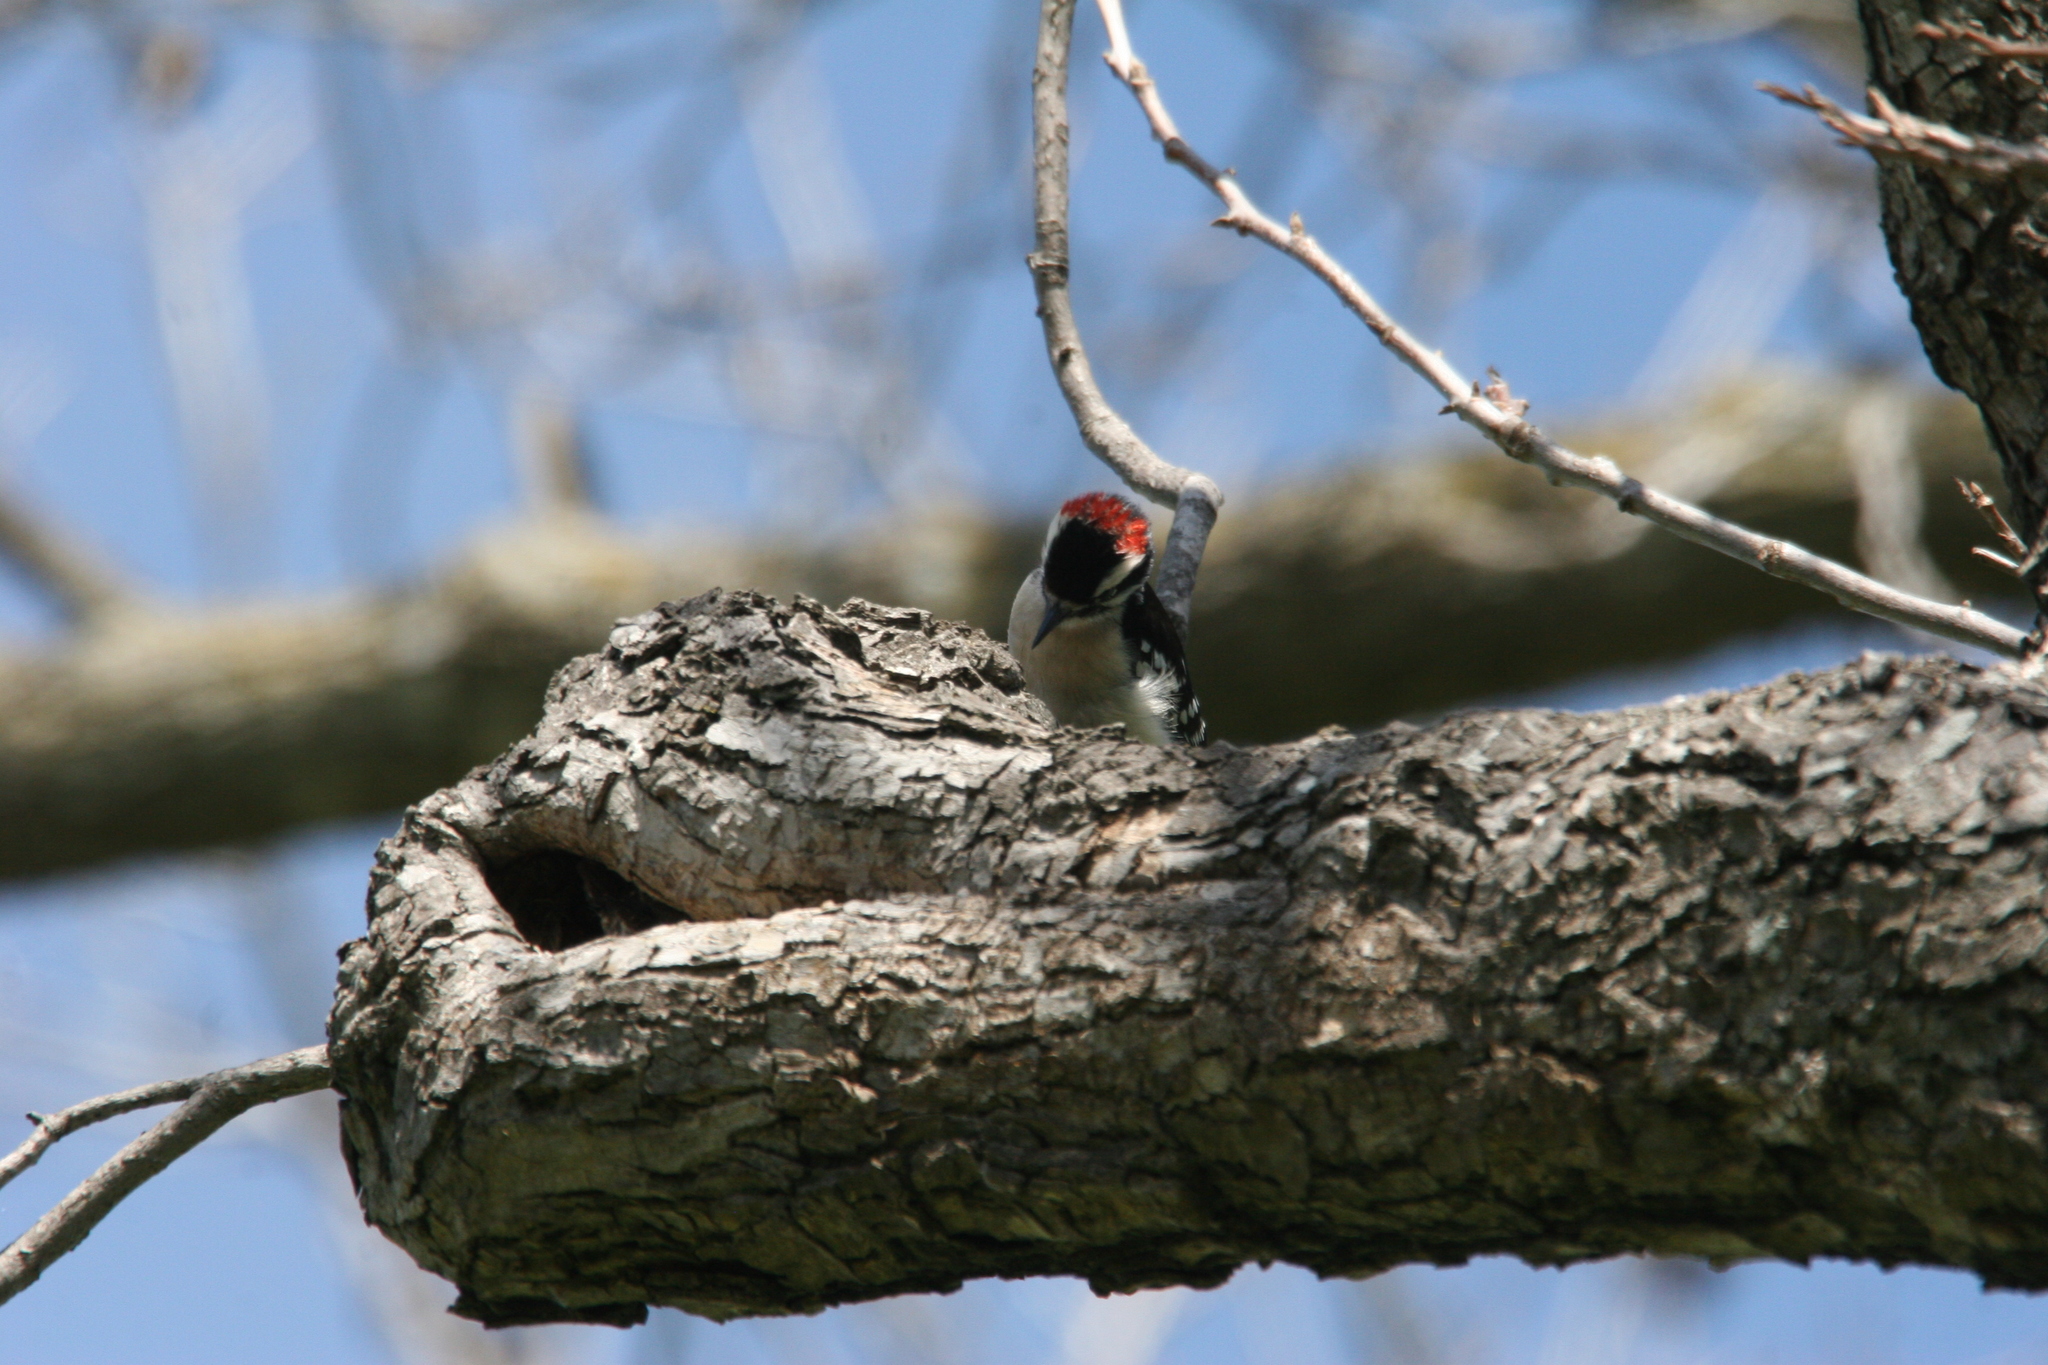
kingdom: Animalia
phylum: Chordata
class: Aves
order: Piciformes
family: Picidae
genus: Dryobates
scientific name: Dryobates pubescens
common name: Downy woodpecker
